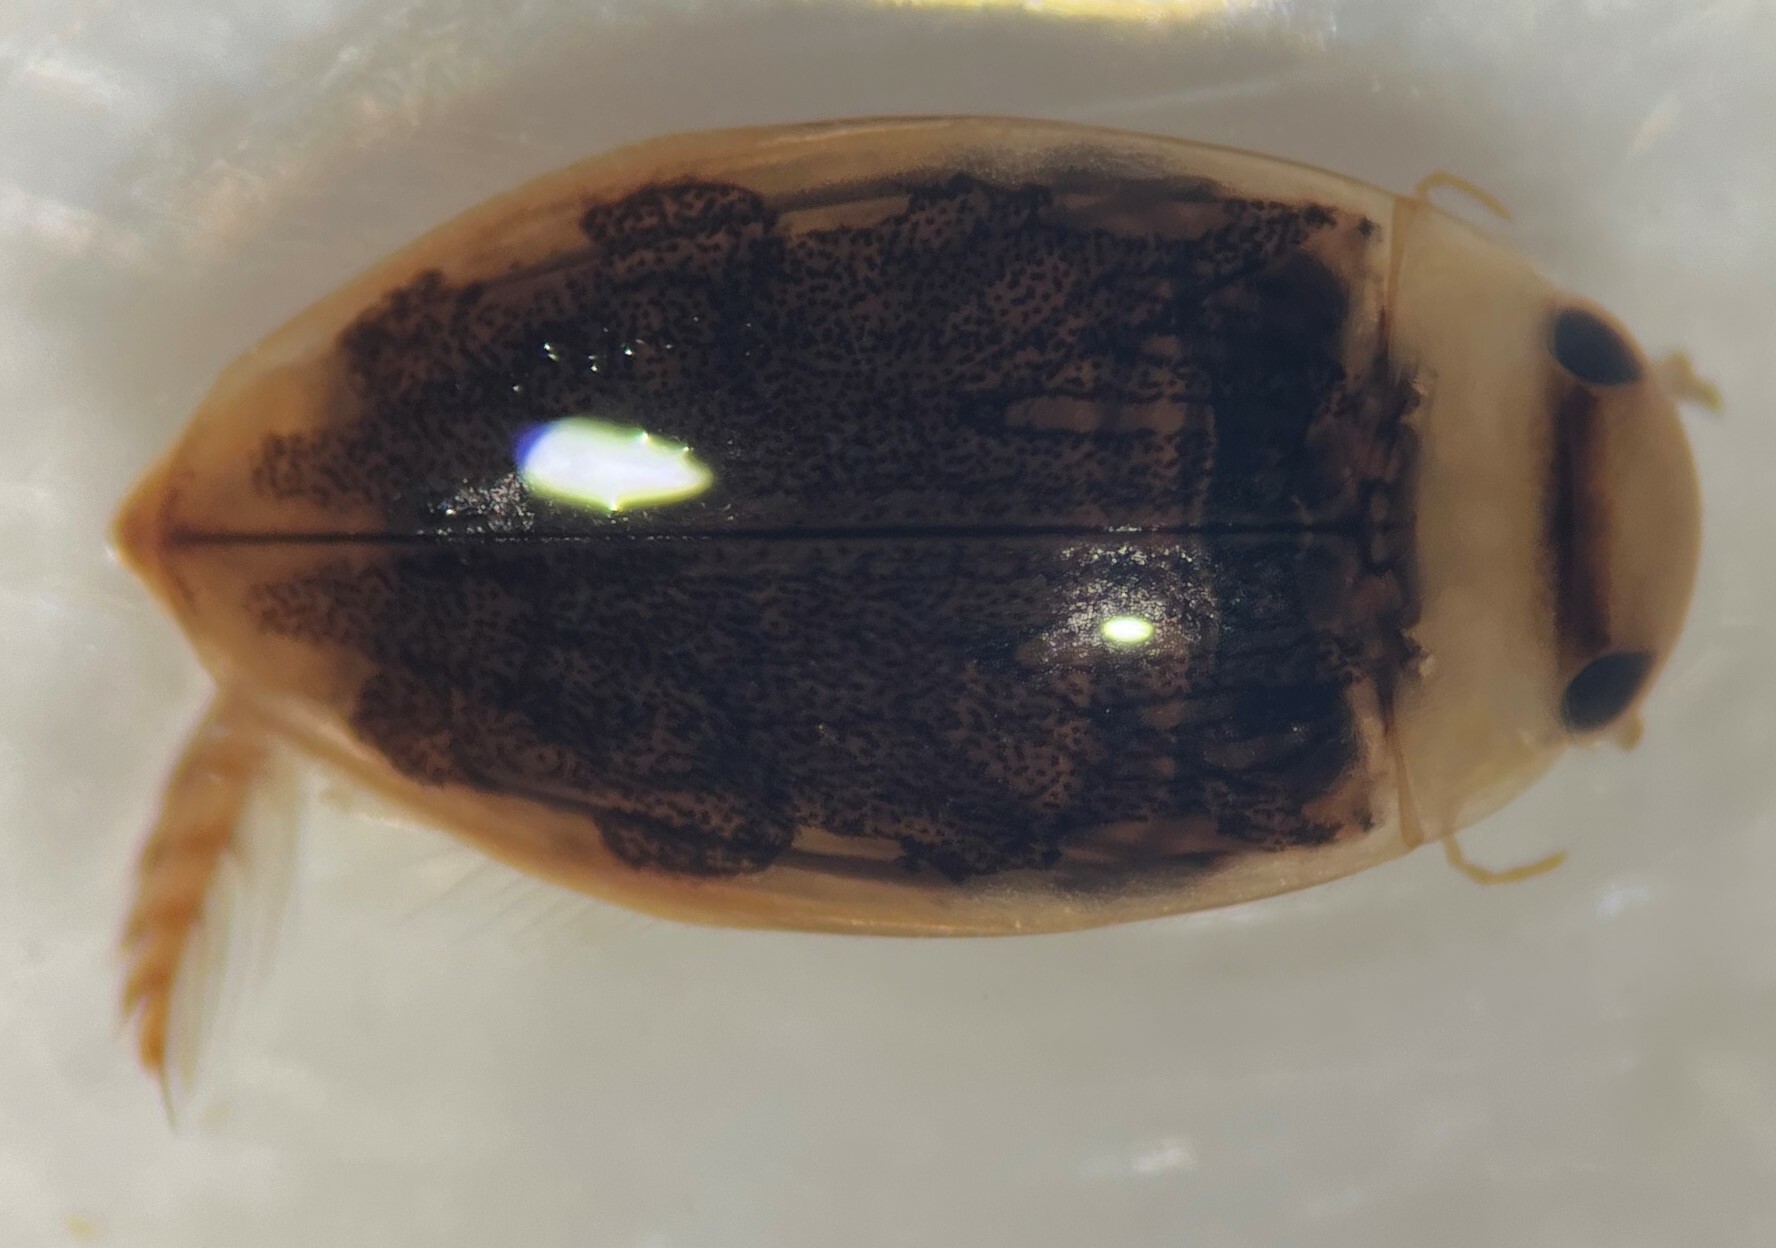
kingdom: Animalia
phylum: Arthropoda
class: Insecta
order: Coleoptera
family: Dytiscidae
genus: Laccophilus
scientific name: Laccophilus vacaensis
